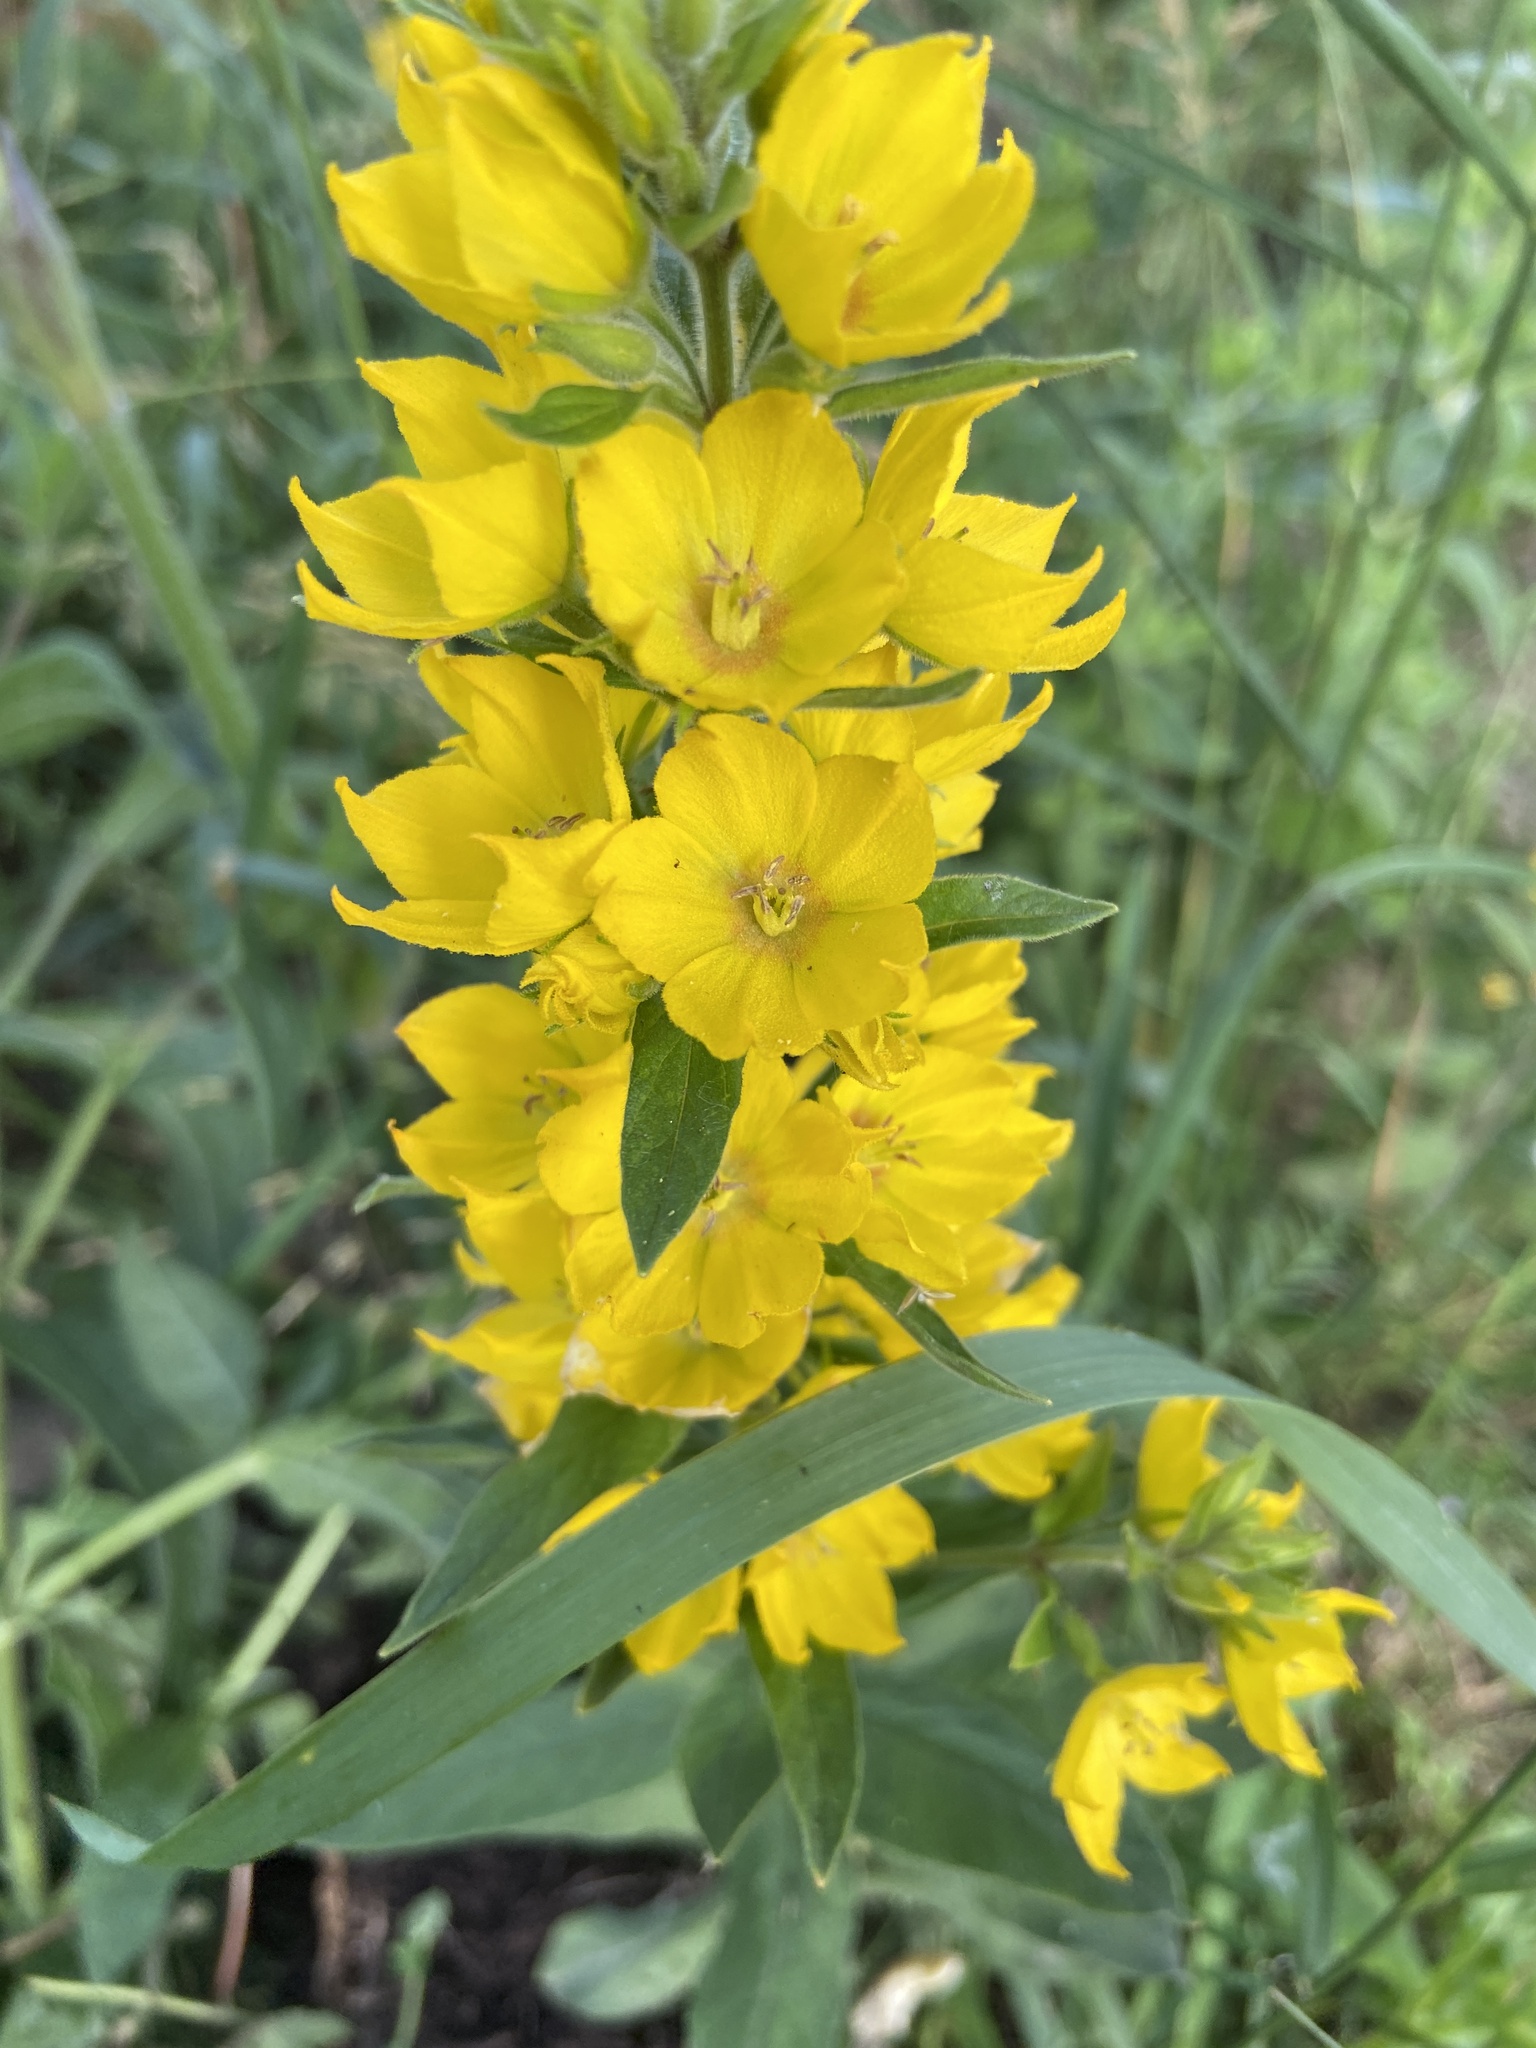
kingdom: Plantae
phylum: Tracheophyta
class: Magnoliopsida
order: Ericales
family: Primulaceae
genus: Lysimachia
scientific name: Lysimachia punctata
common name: Dotted loosestrife
